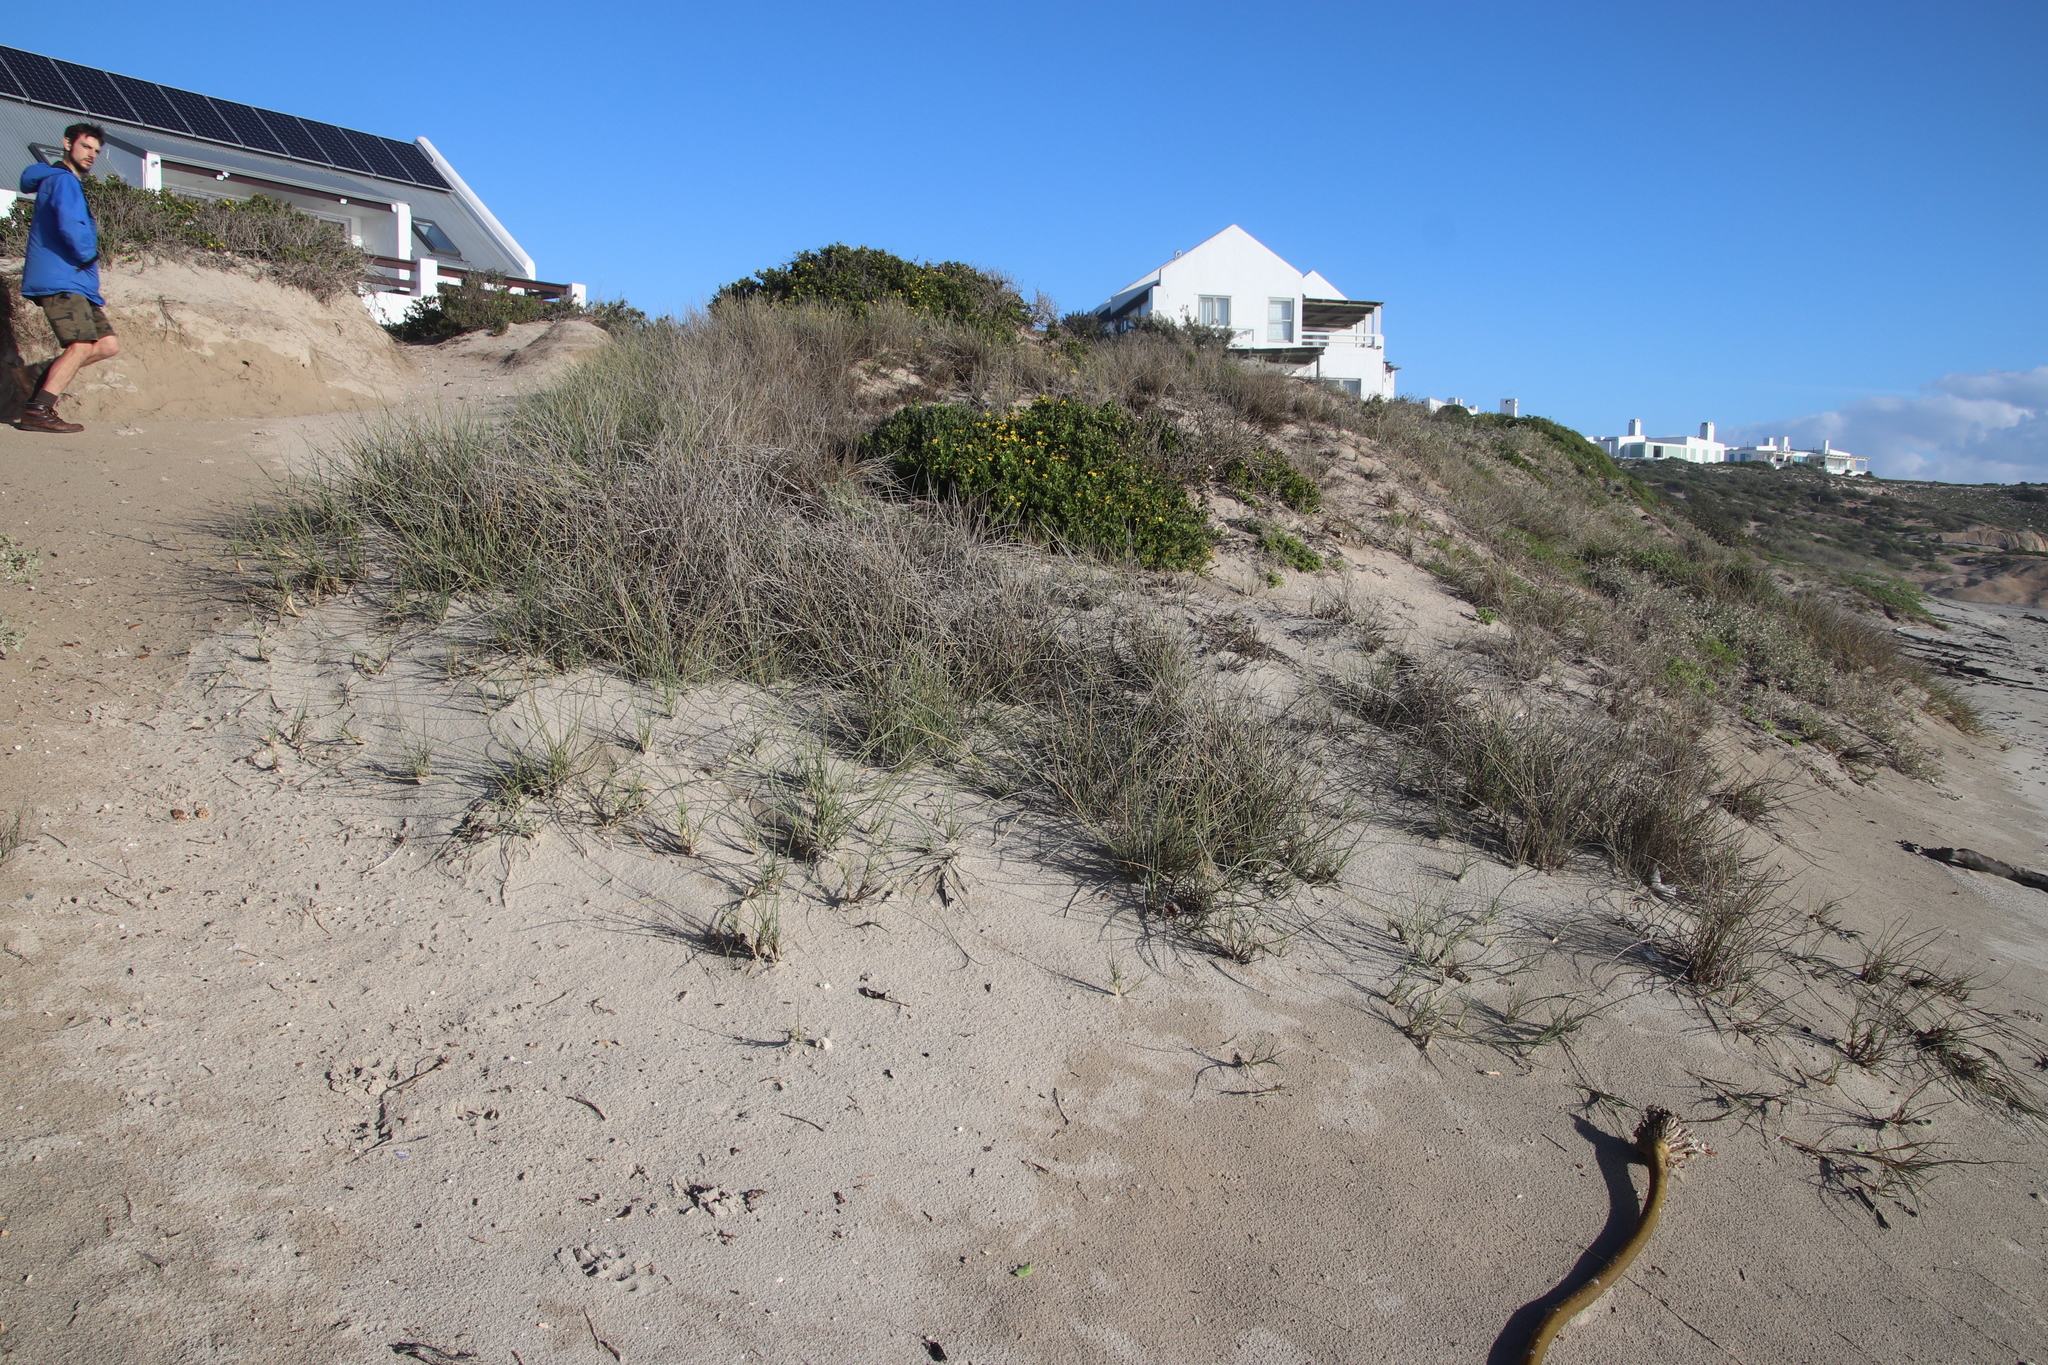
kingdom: Plantae
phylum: Tracheophyta
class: Liliopsida
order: Poales
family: Poaceae
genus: Sporobolus
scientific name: Sporobolus virginicus
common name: Beach dropseed
